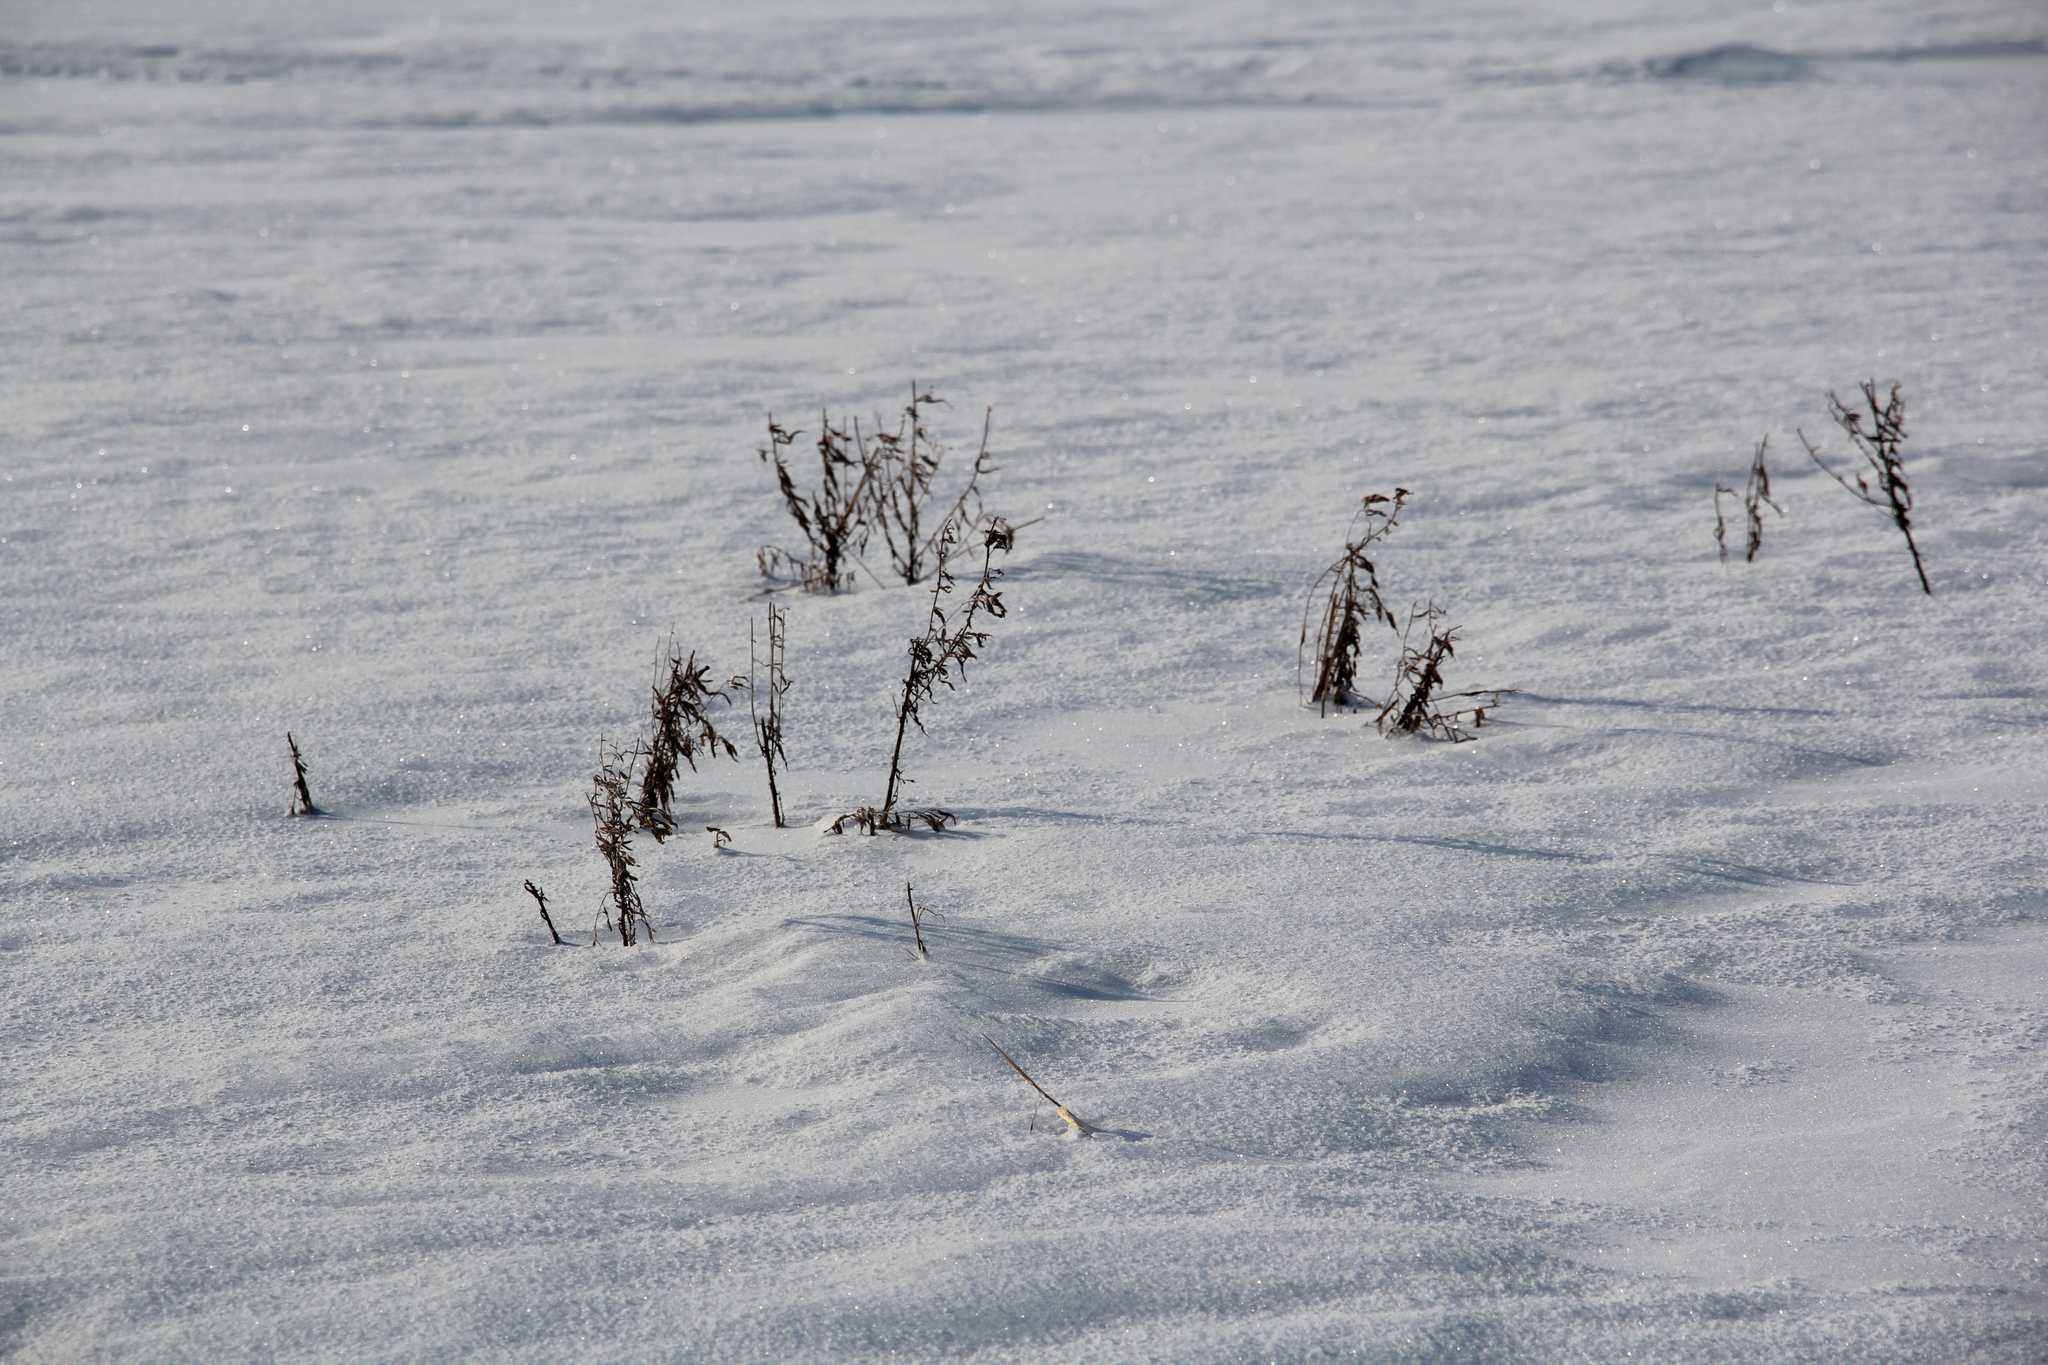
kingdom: Plantae
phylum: Tracheophyta
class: Magnoliopsida
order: Asterales
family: Asteraceae
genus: Achillea
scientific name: Achillea salicifolia
